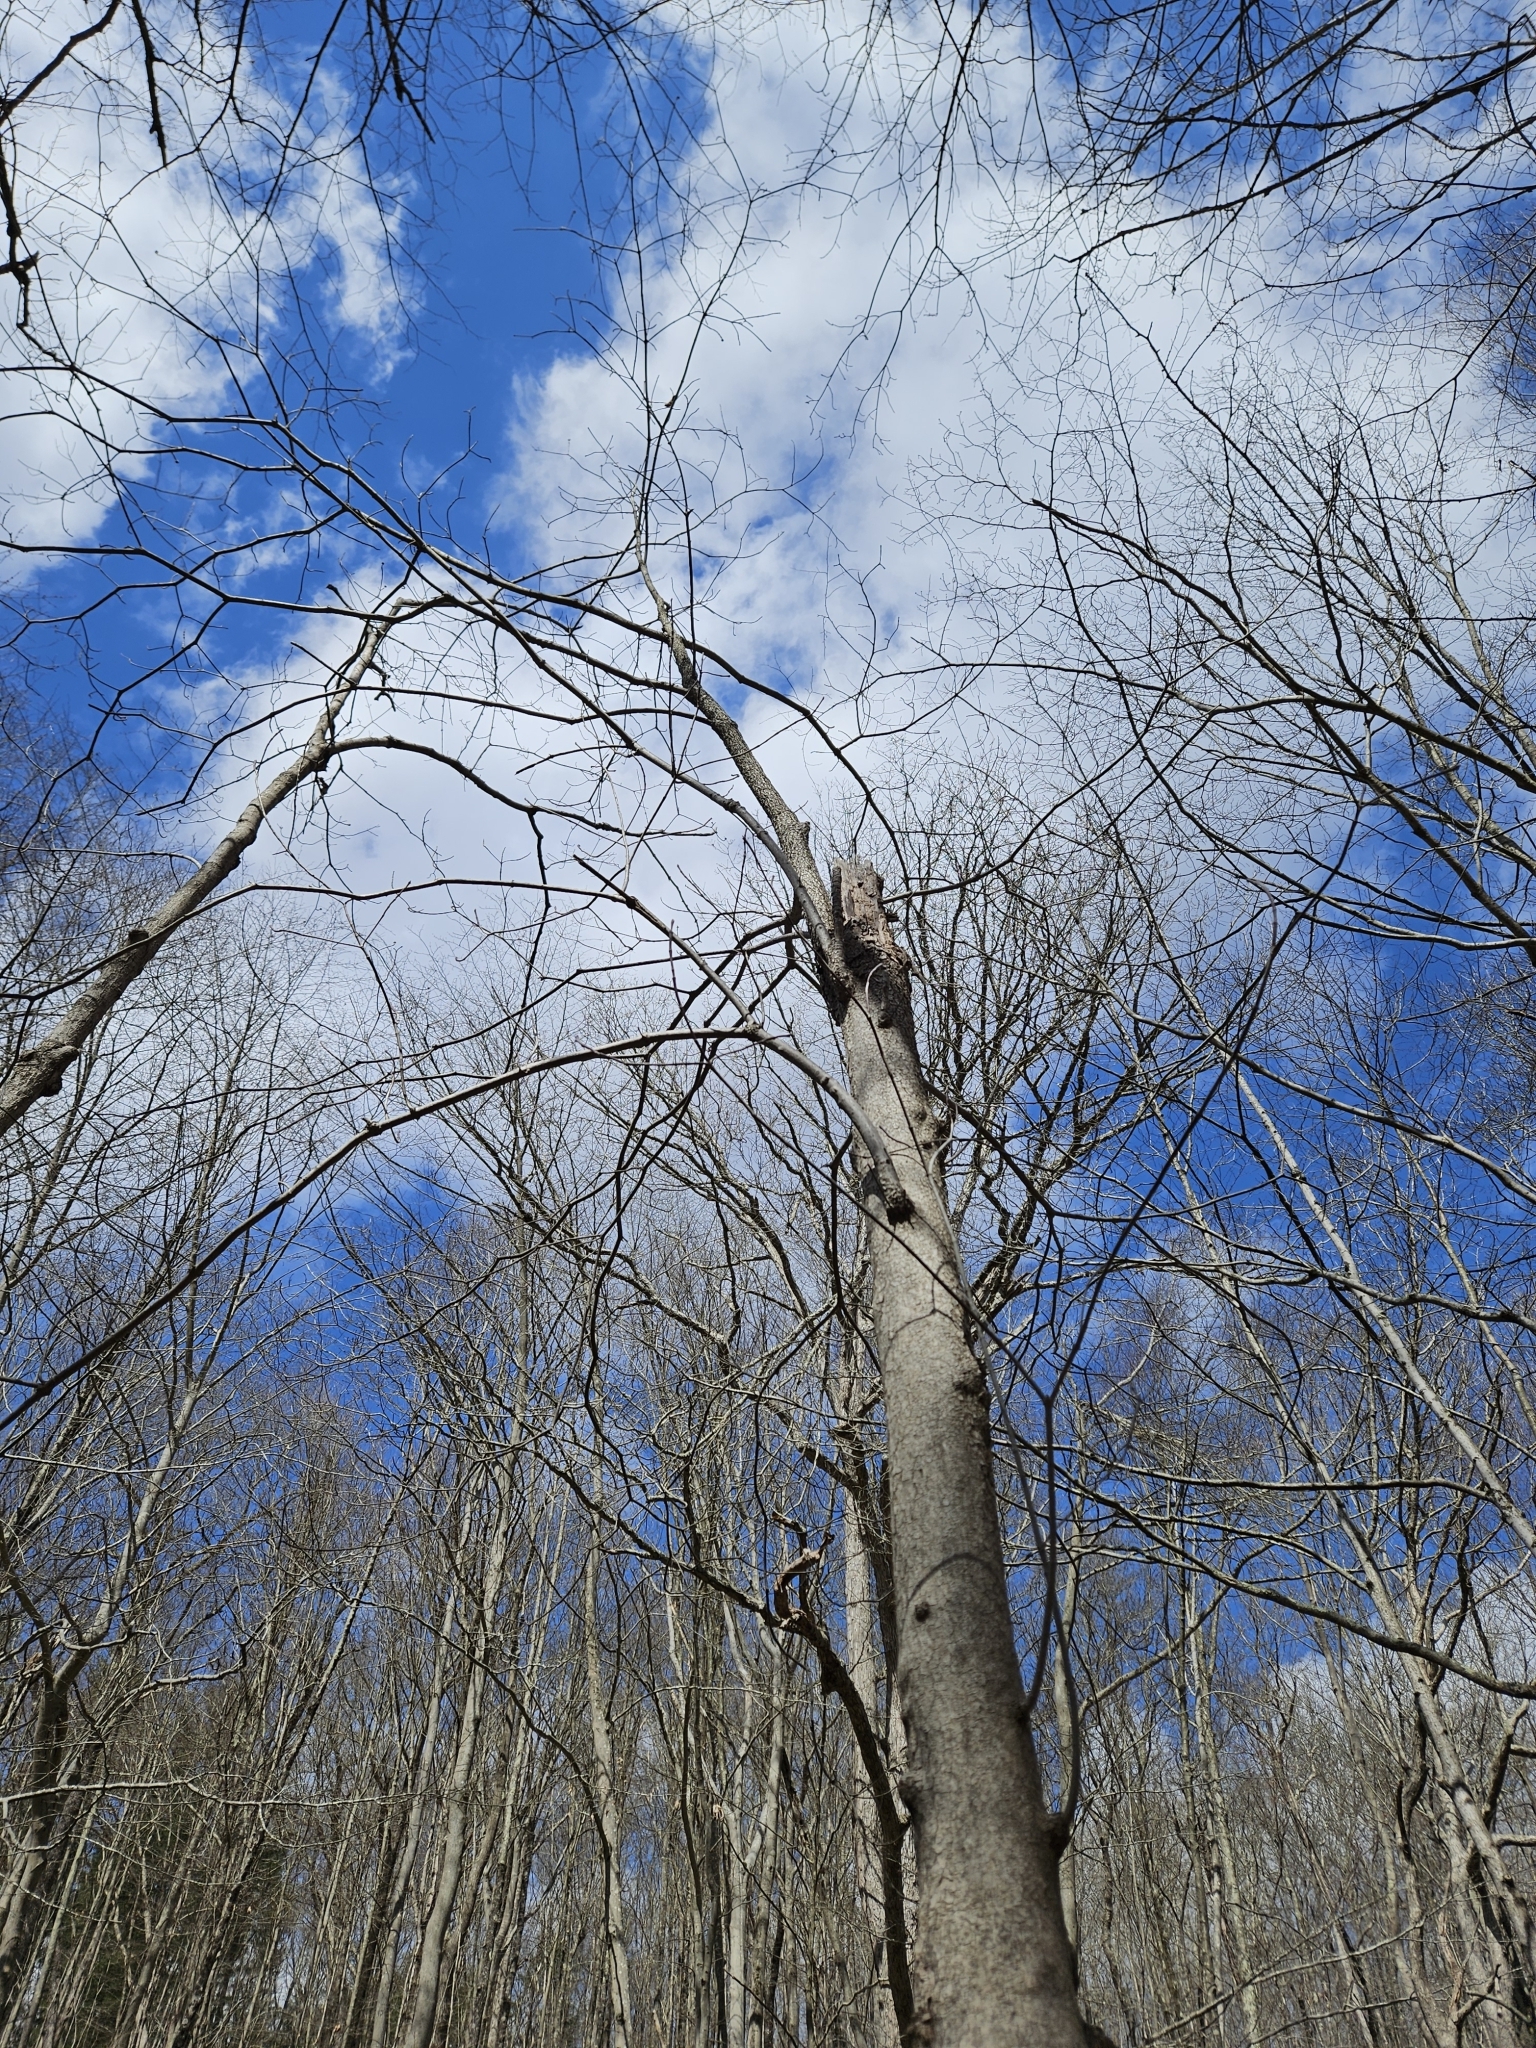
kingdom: Plantae
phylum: Tracheophyta
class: Magnoliopsida
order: Cornales
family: Cornaceae
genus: Cornus
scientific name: Cornus alternifolia
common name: Pagoda dogwood
